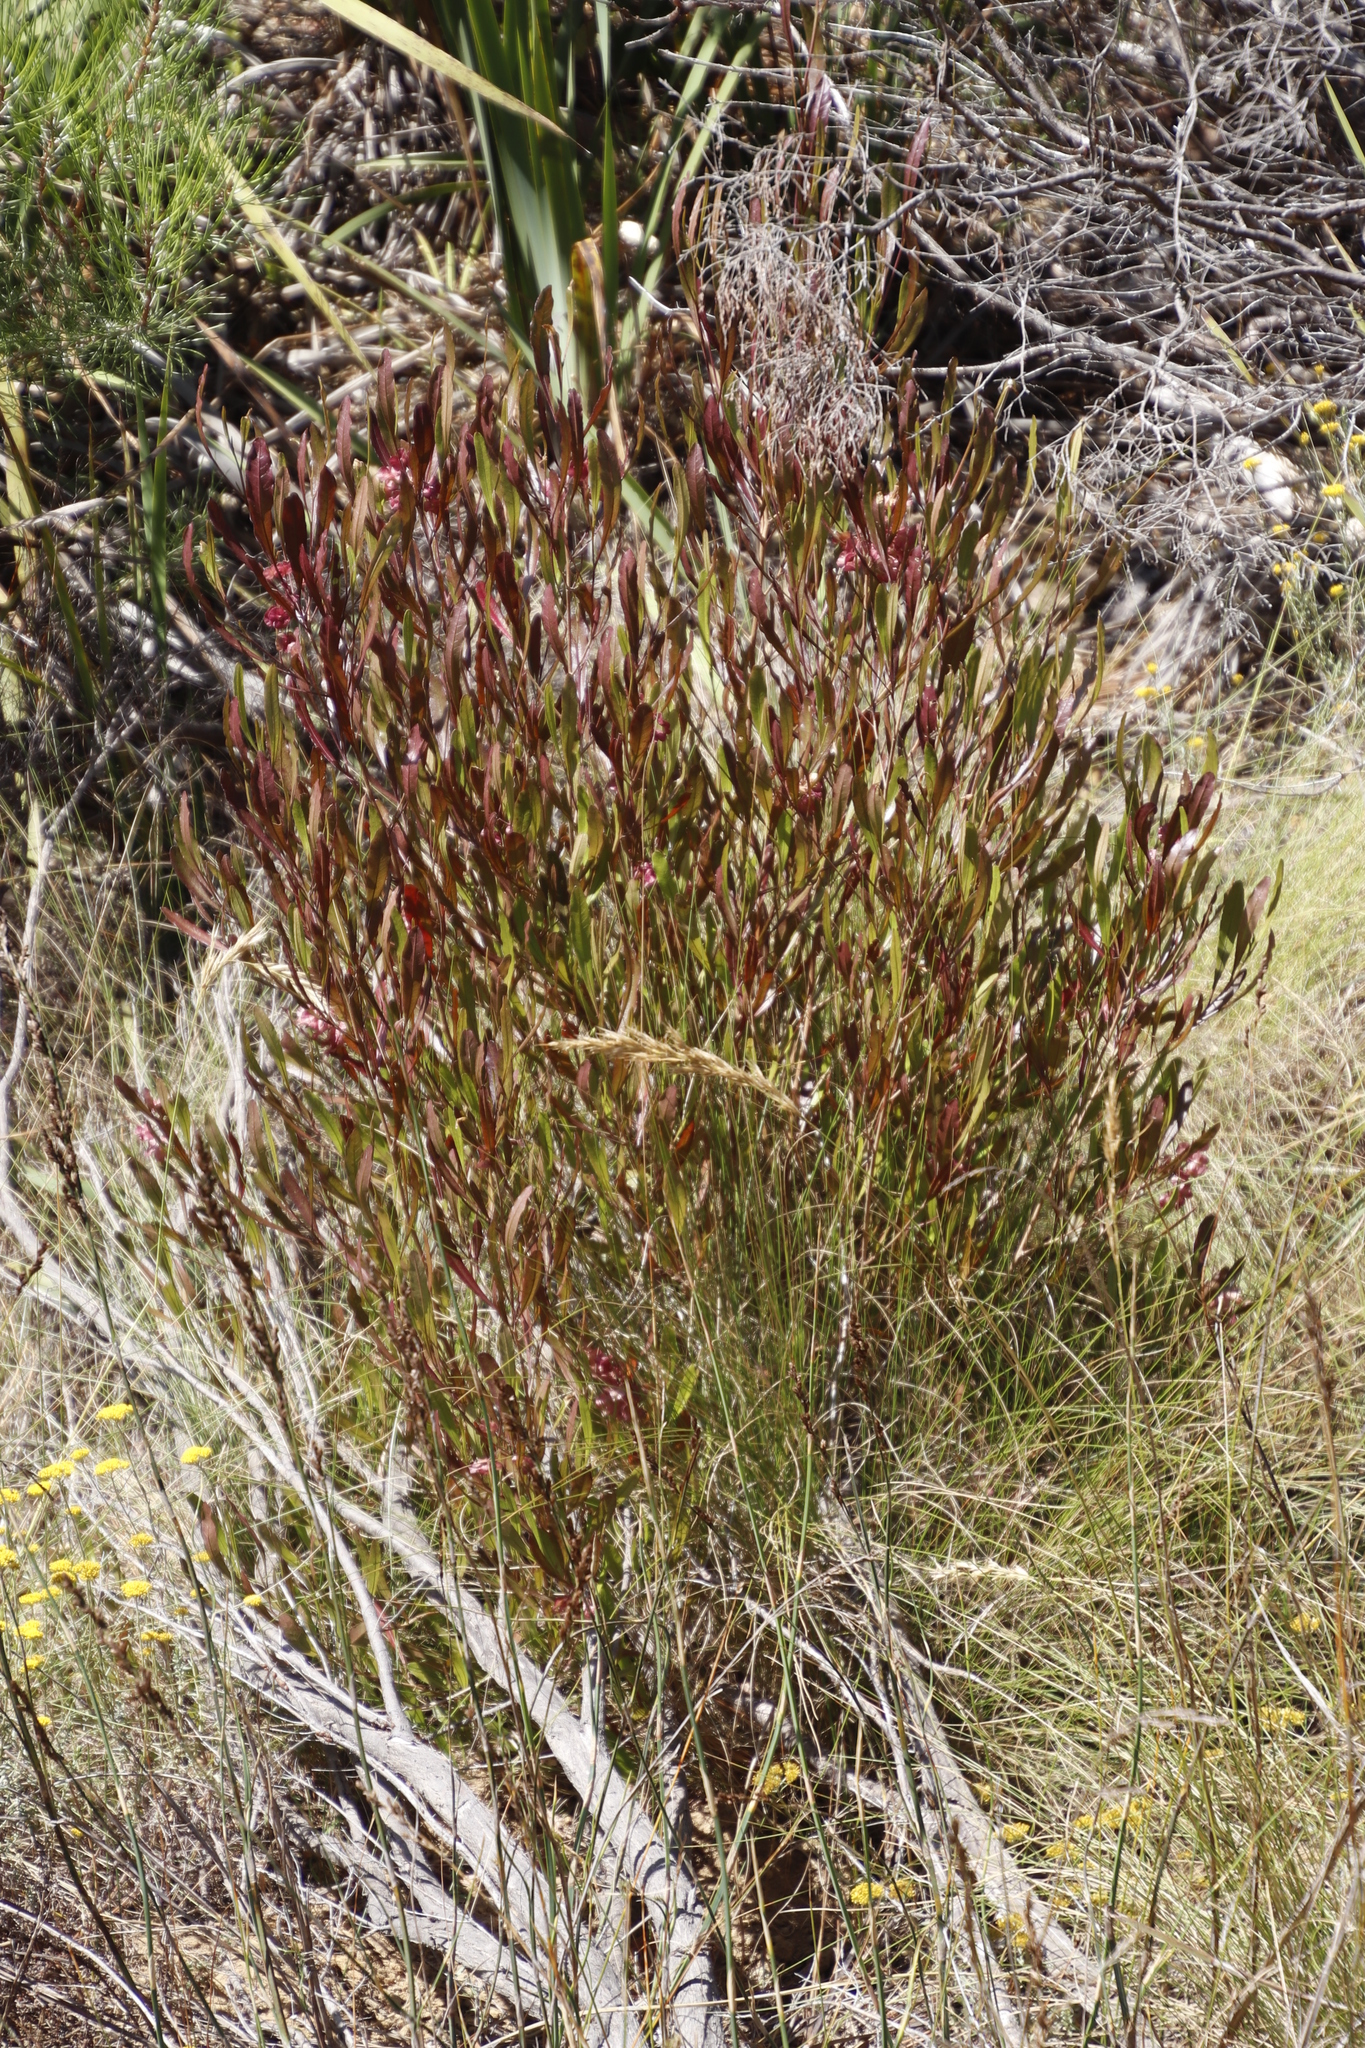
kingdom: Plantae
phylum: Tracheophyta
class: Magnoliopsida
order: Sapindales
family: Sapindaceae
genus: Dodonaea
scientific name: Dodonaea viscosa
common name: Hopbush
